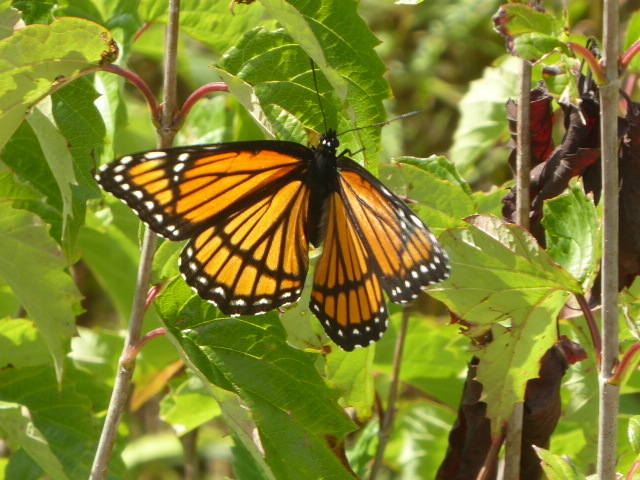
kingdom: Animalia
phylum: Arthropoda
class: Insecta
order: Lepidoptera
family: Nymphalidae
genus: Limenitis
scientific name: Limenitis archippus
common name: Viceroy
